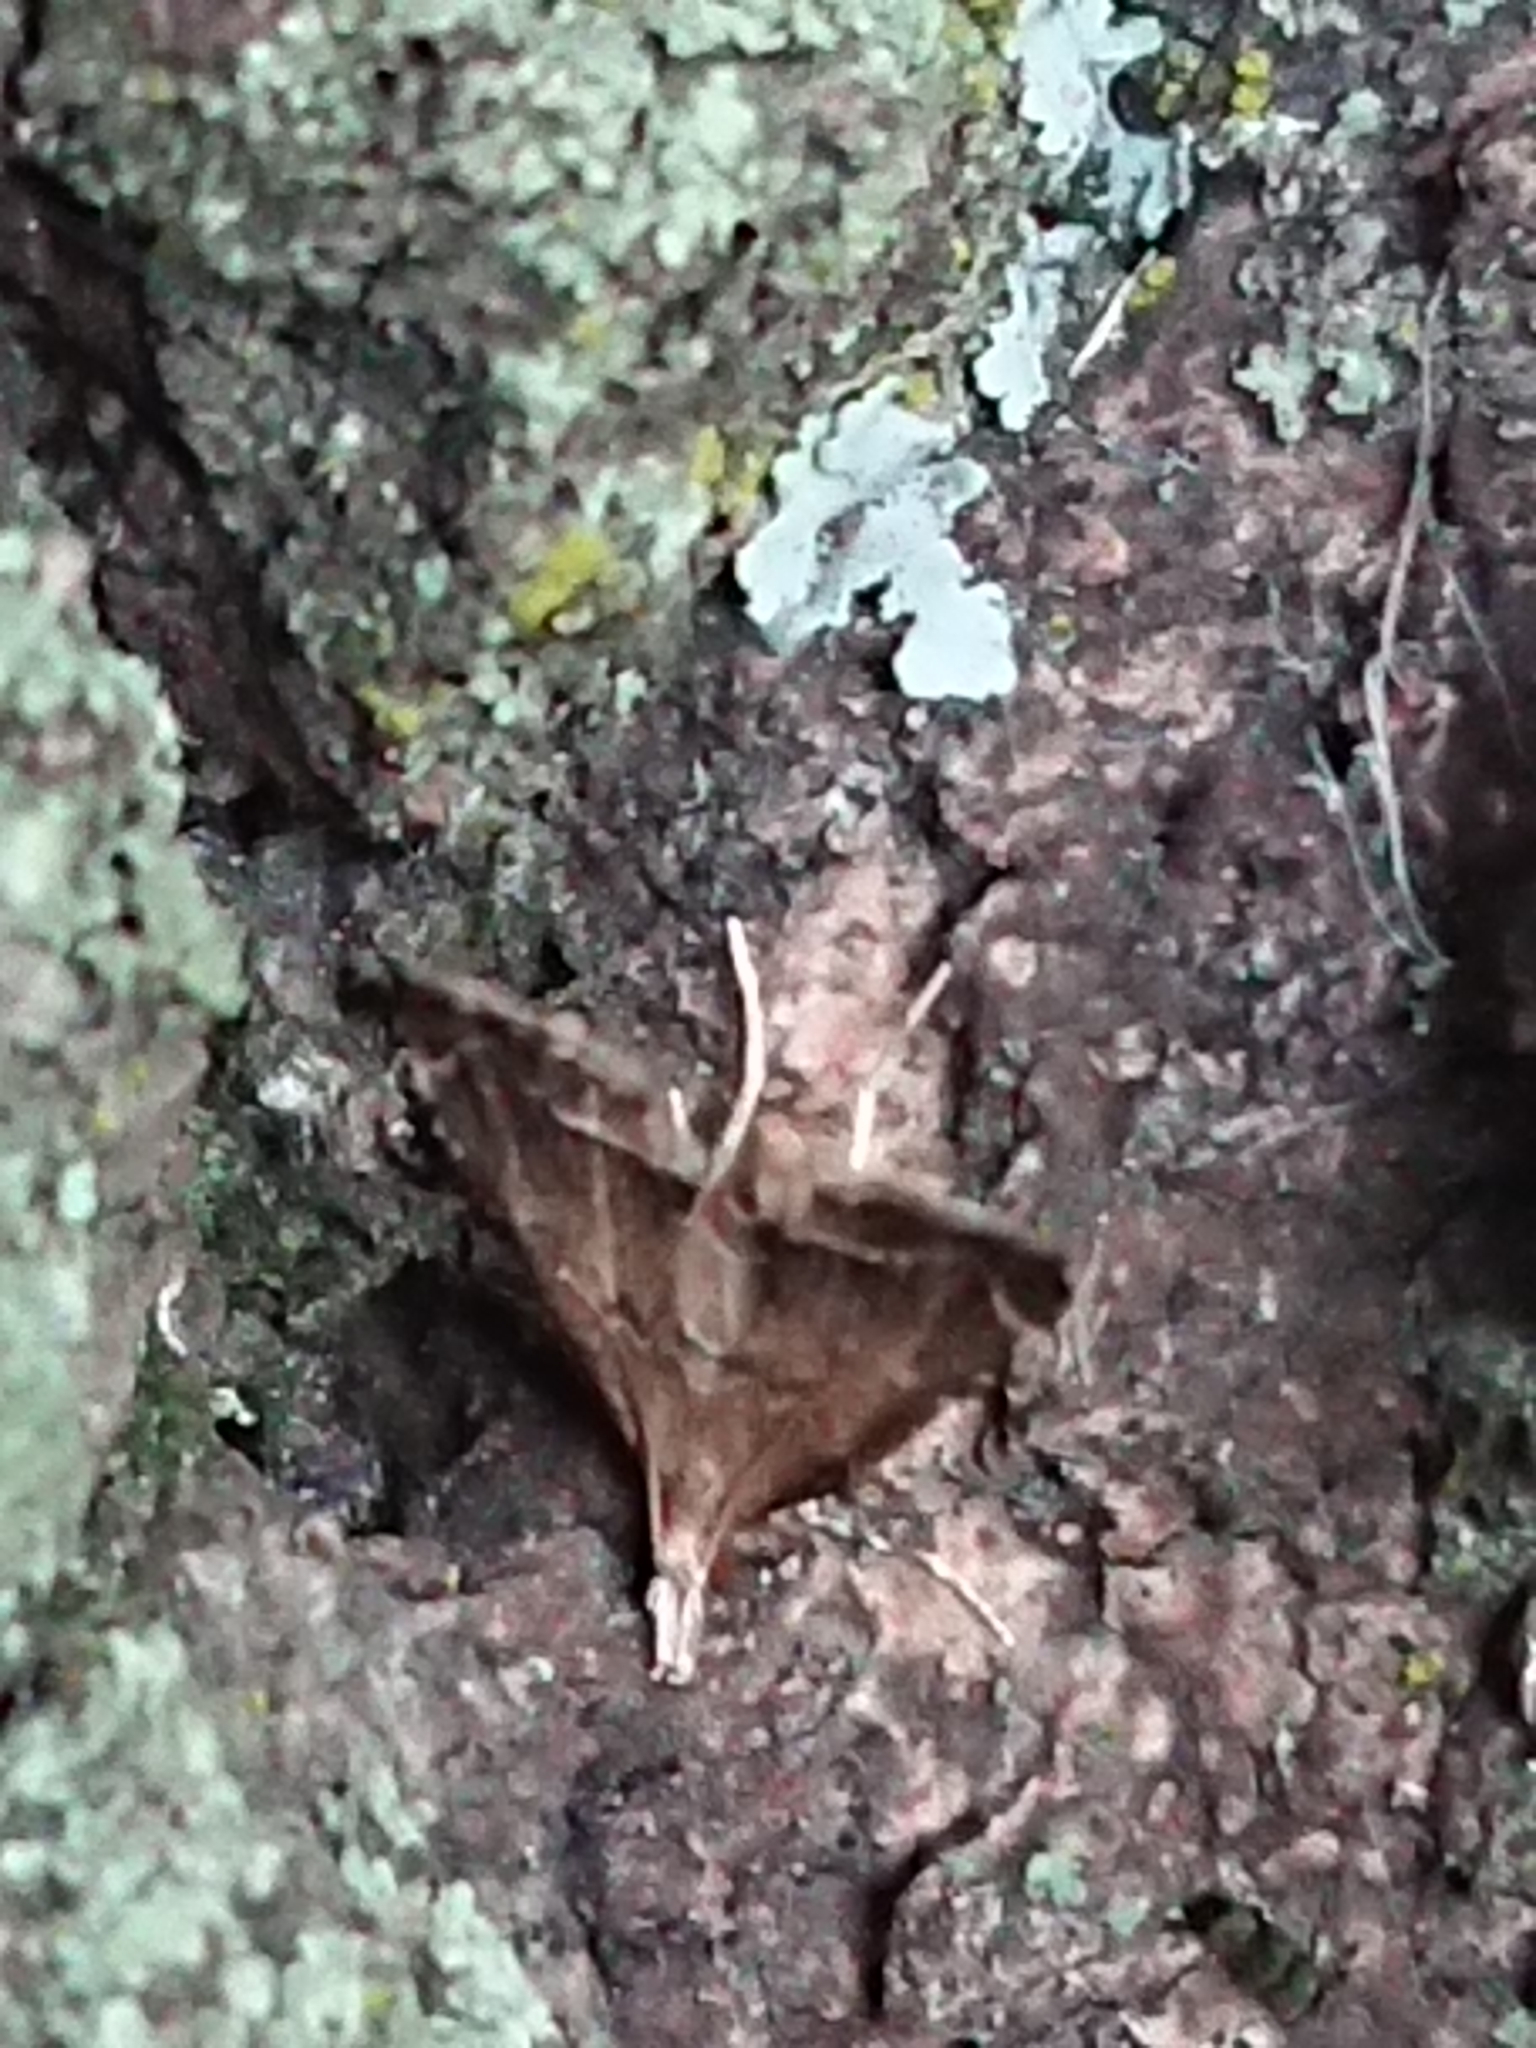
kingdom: Animalia
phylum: Arthropoda
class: Insecta
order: Lepidoptera
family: Crambidae
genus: Diplopseustis
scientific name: Diplopseustis perieresalis
